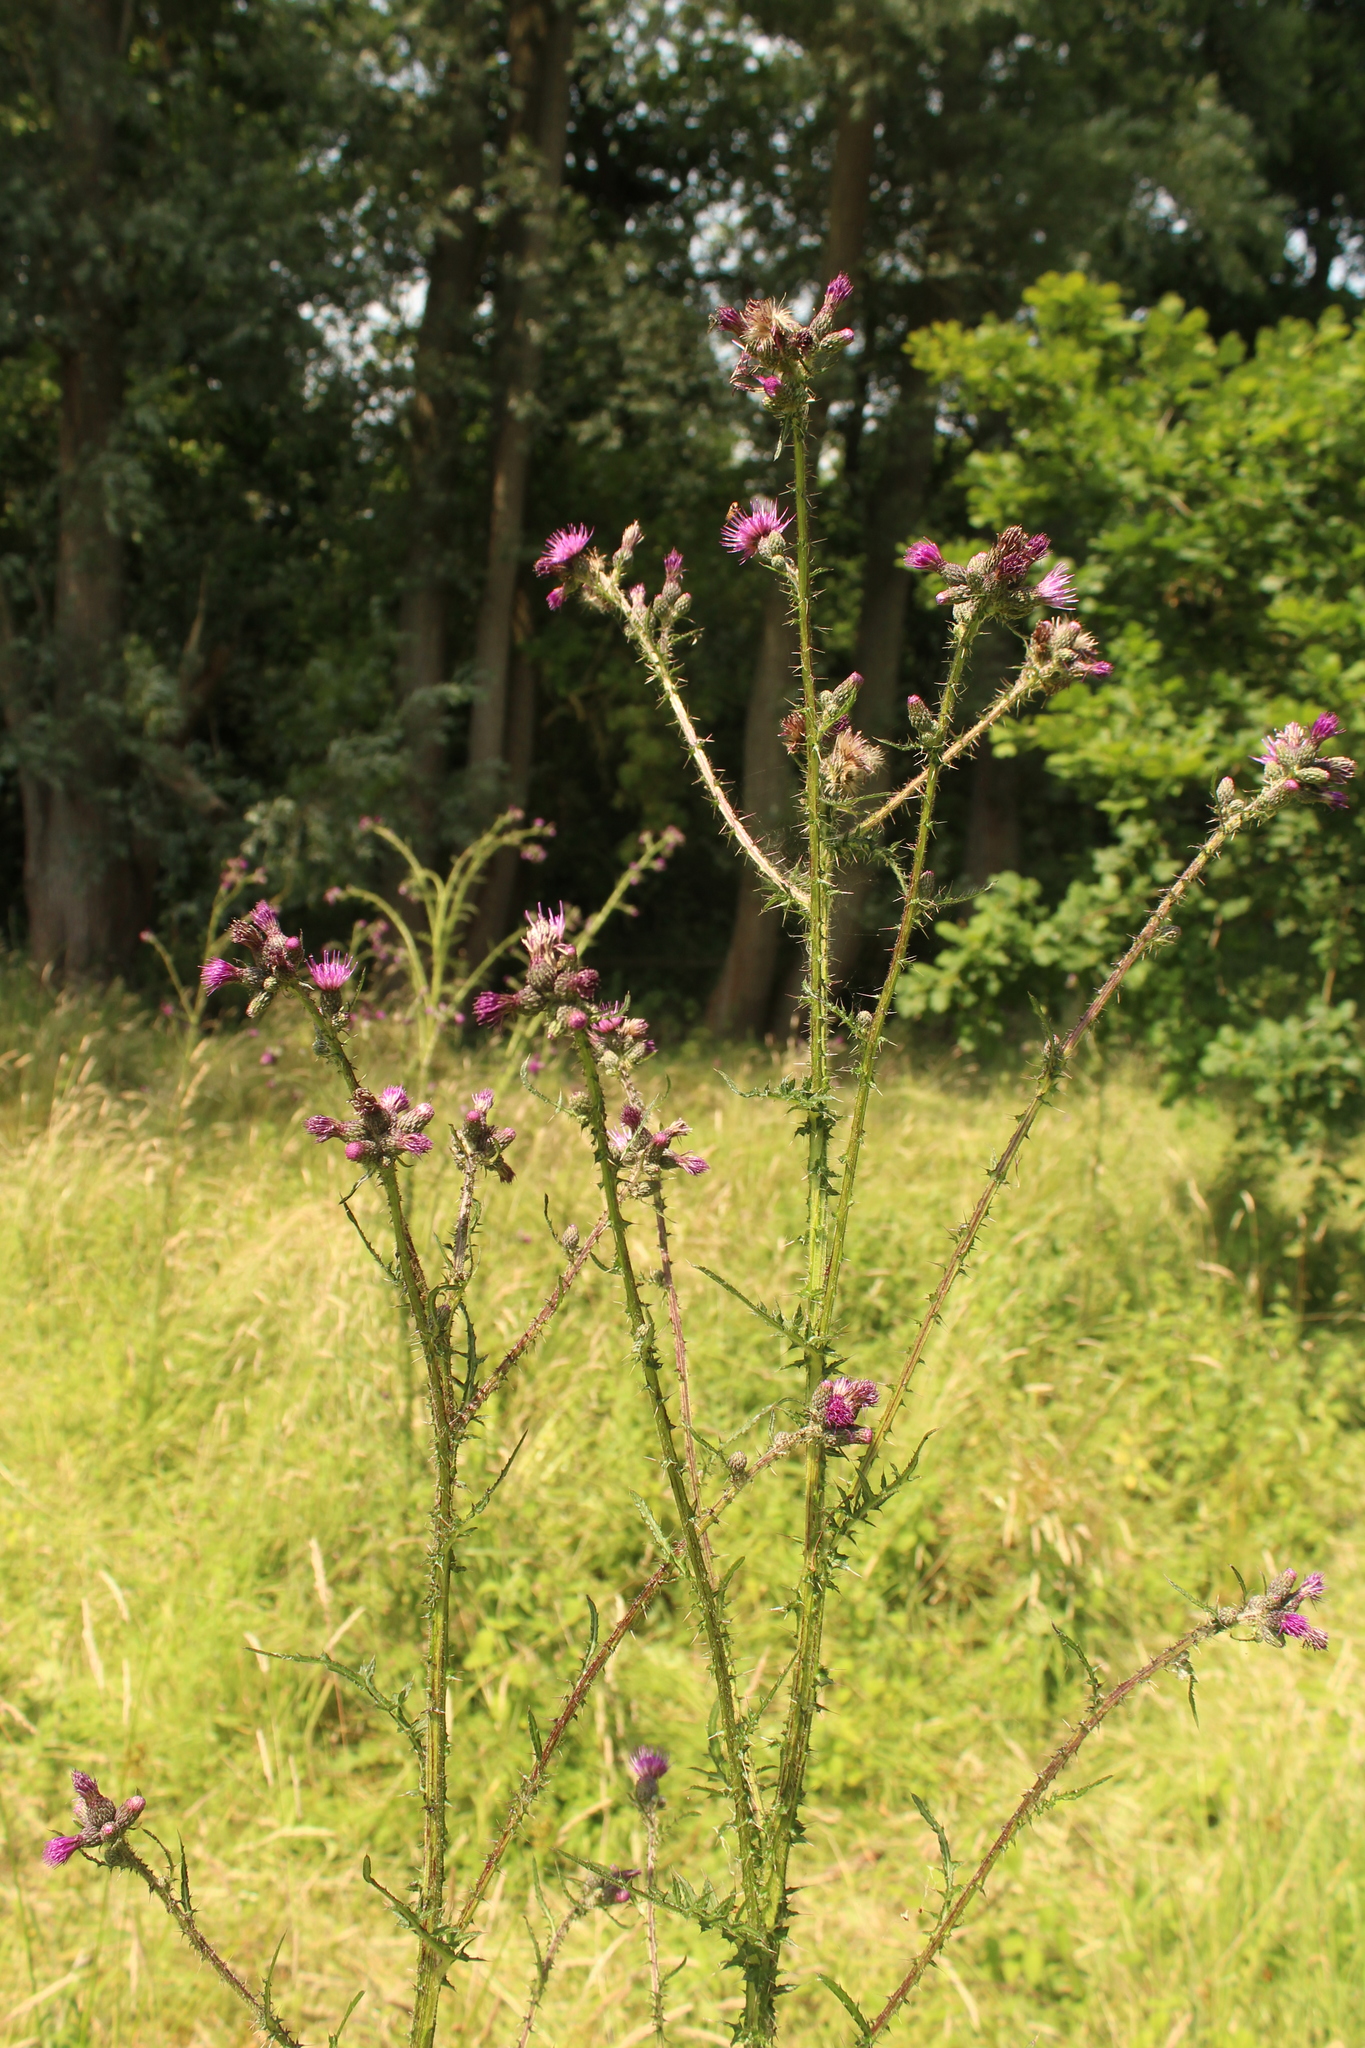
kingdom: Plantae
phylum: Tracheophyta
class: Magnoliopsida
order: Asterales
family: Asteraceae
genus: Cirsium
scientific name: Cirsium palustre
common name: Marsh thistle
